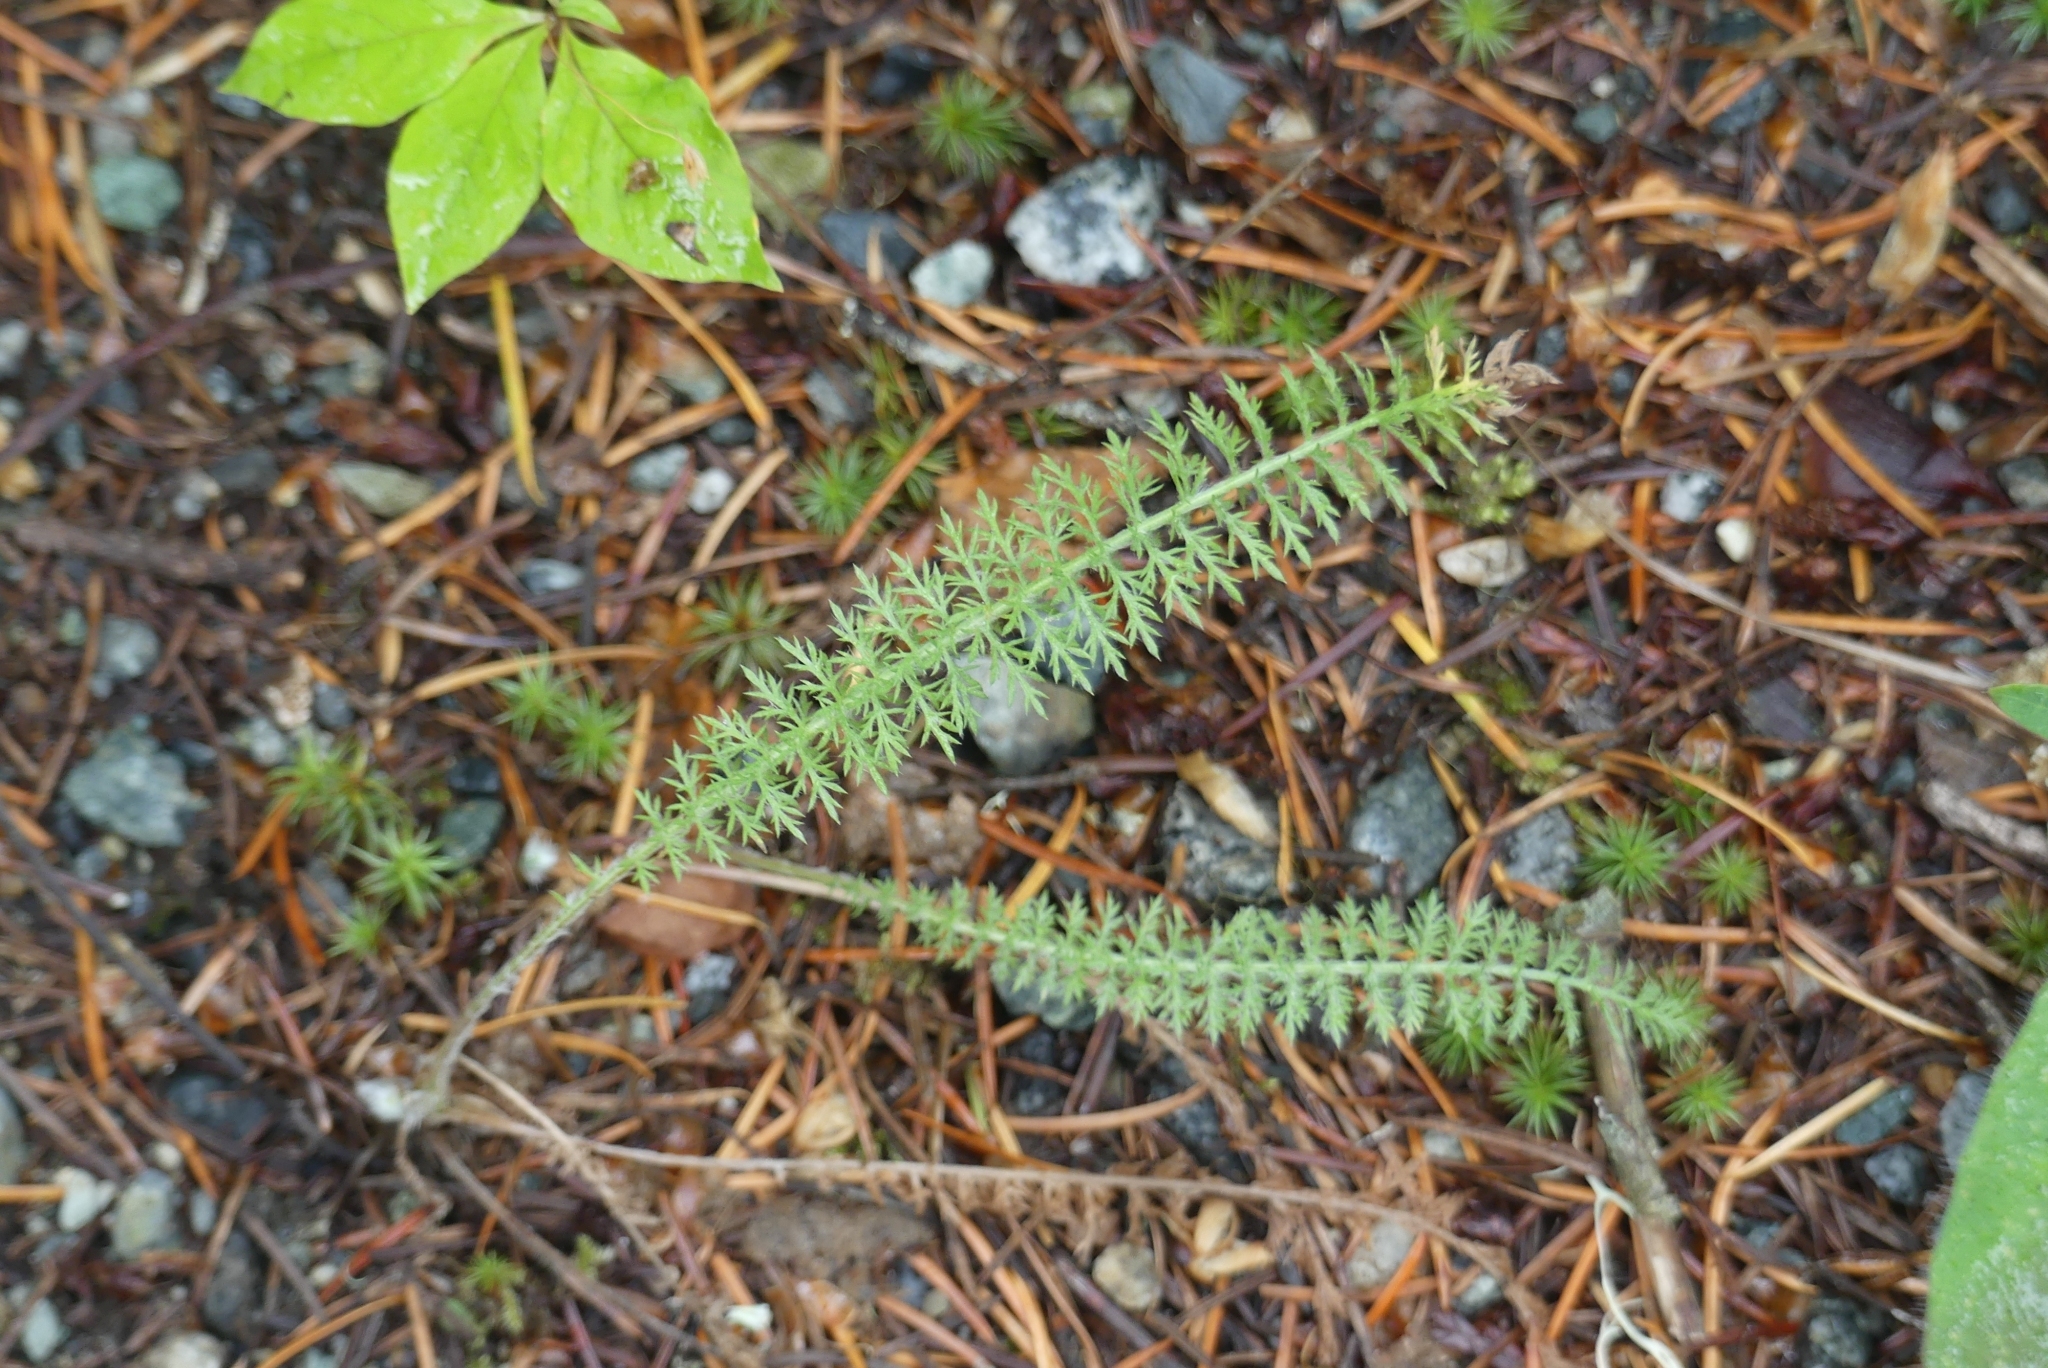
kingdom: Plantae
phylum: Tracheophyta
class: Magnoliopsida
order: Asterales
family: Asteraceae
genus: Achillea
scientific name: Achillea millefolium
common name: Yarrow
